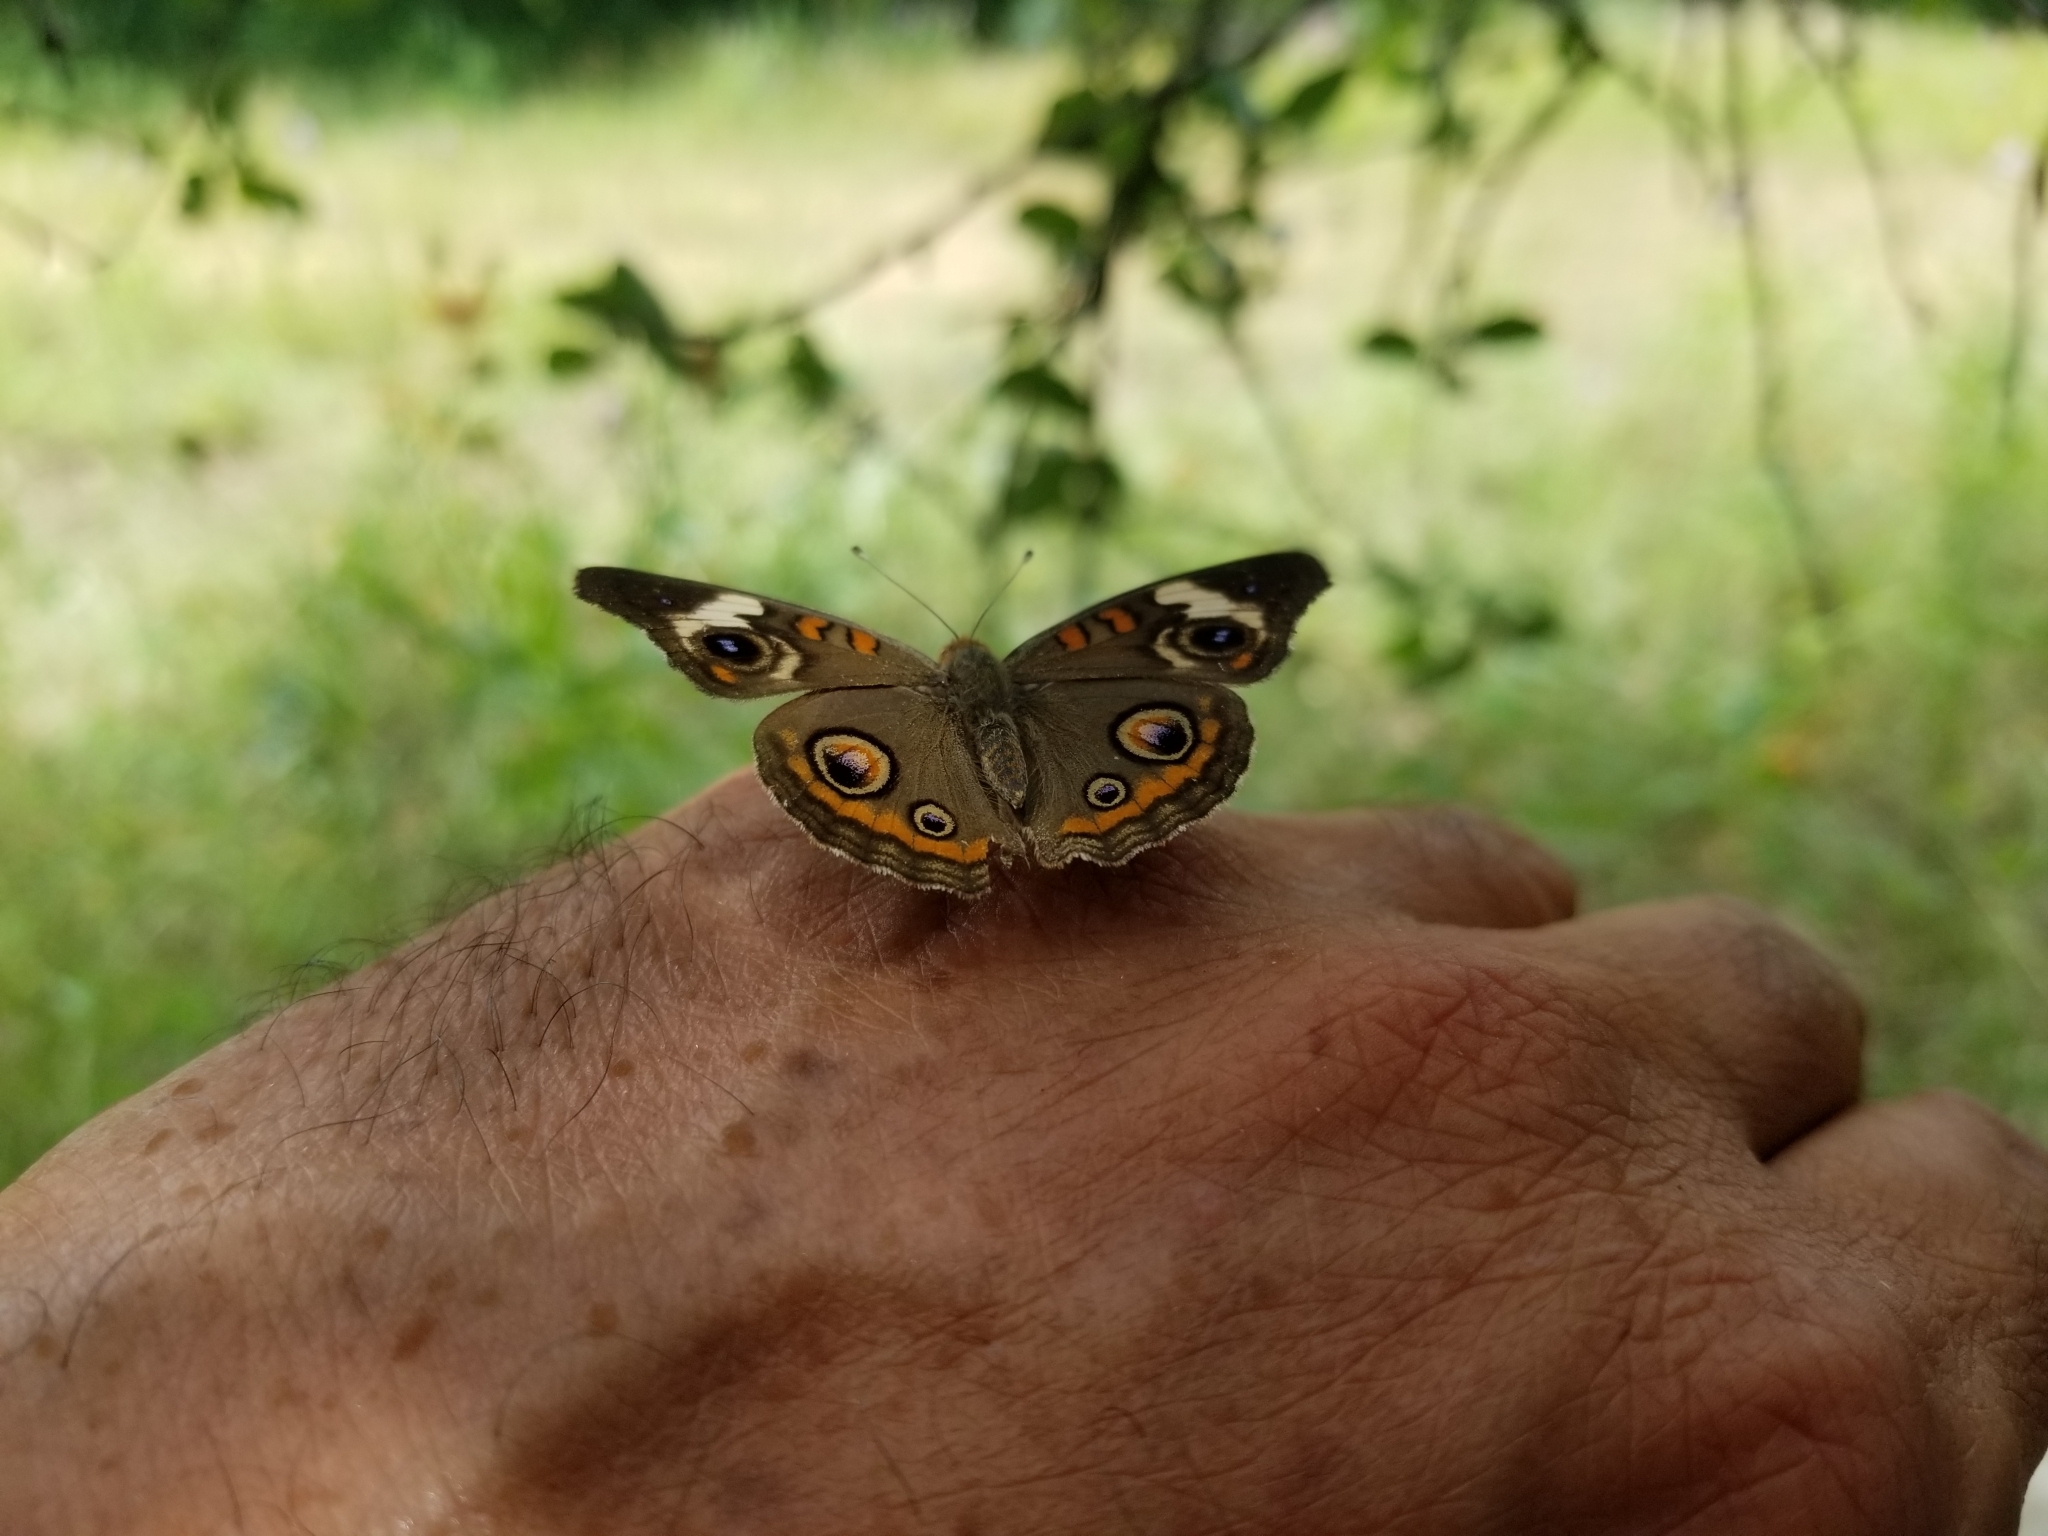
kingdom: Animalia
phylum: Arthropoda
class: Insecta
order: Lepidoptera
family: Nymphalidae
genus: Junonia
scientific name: Junonia coenia
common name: Common buckeye
